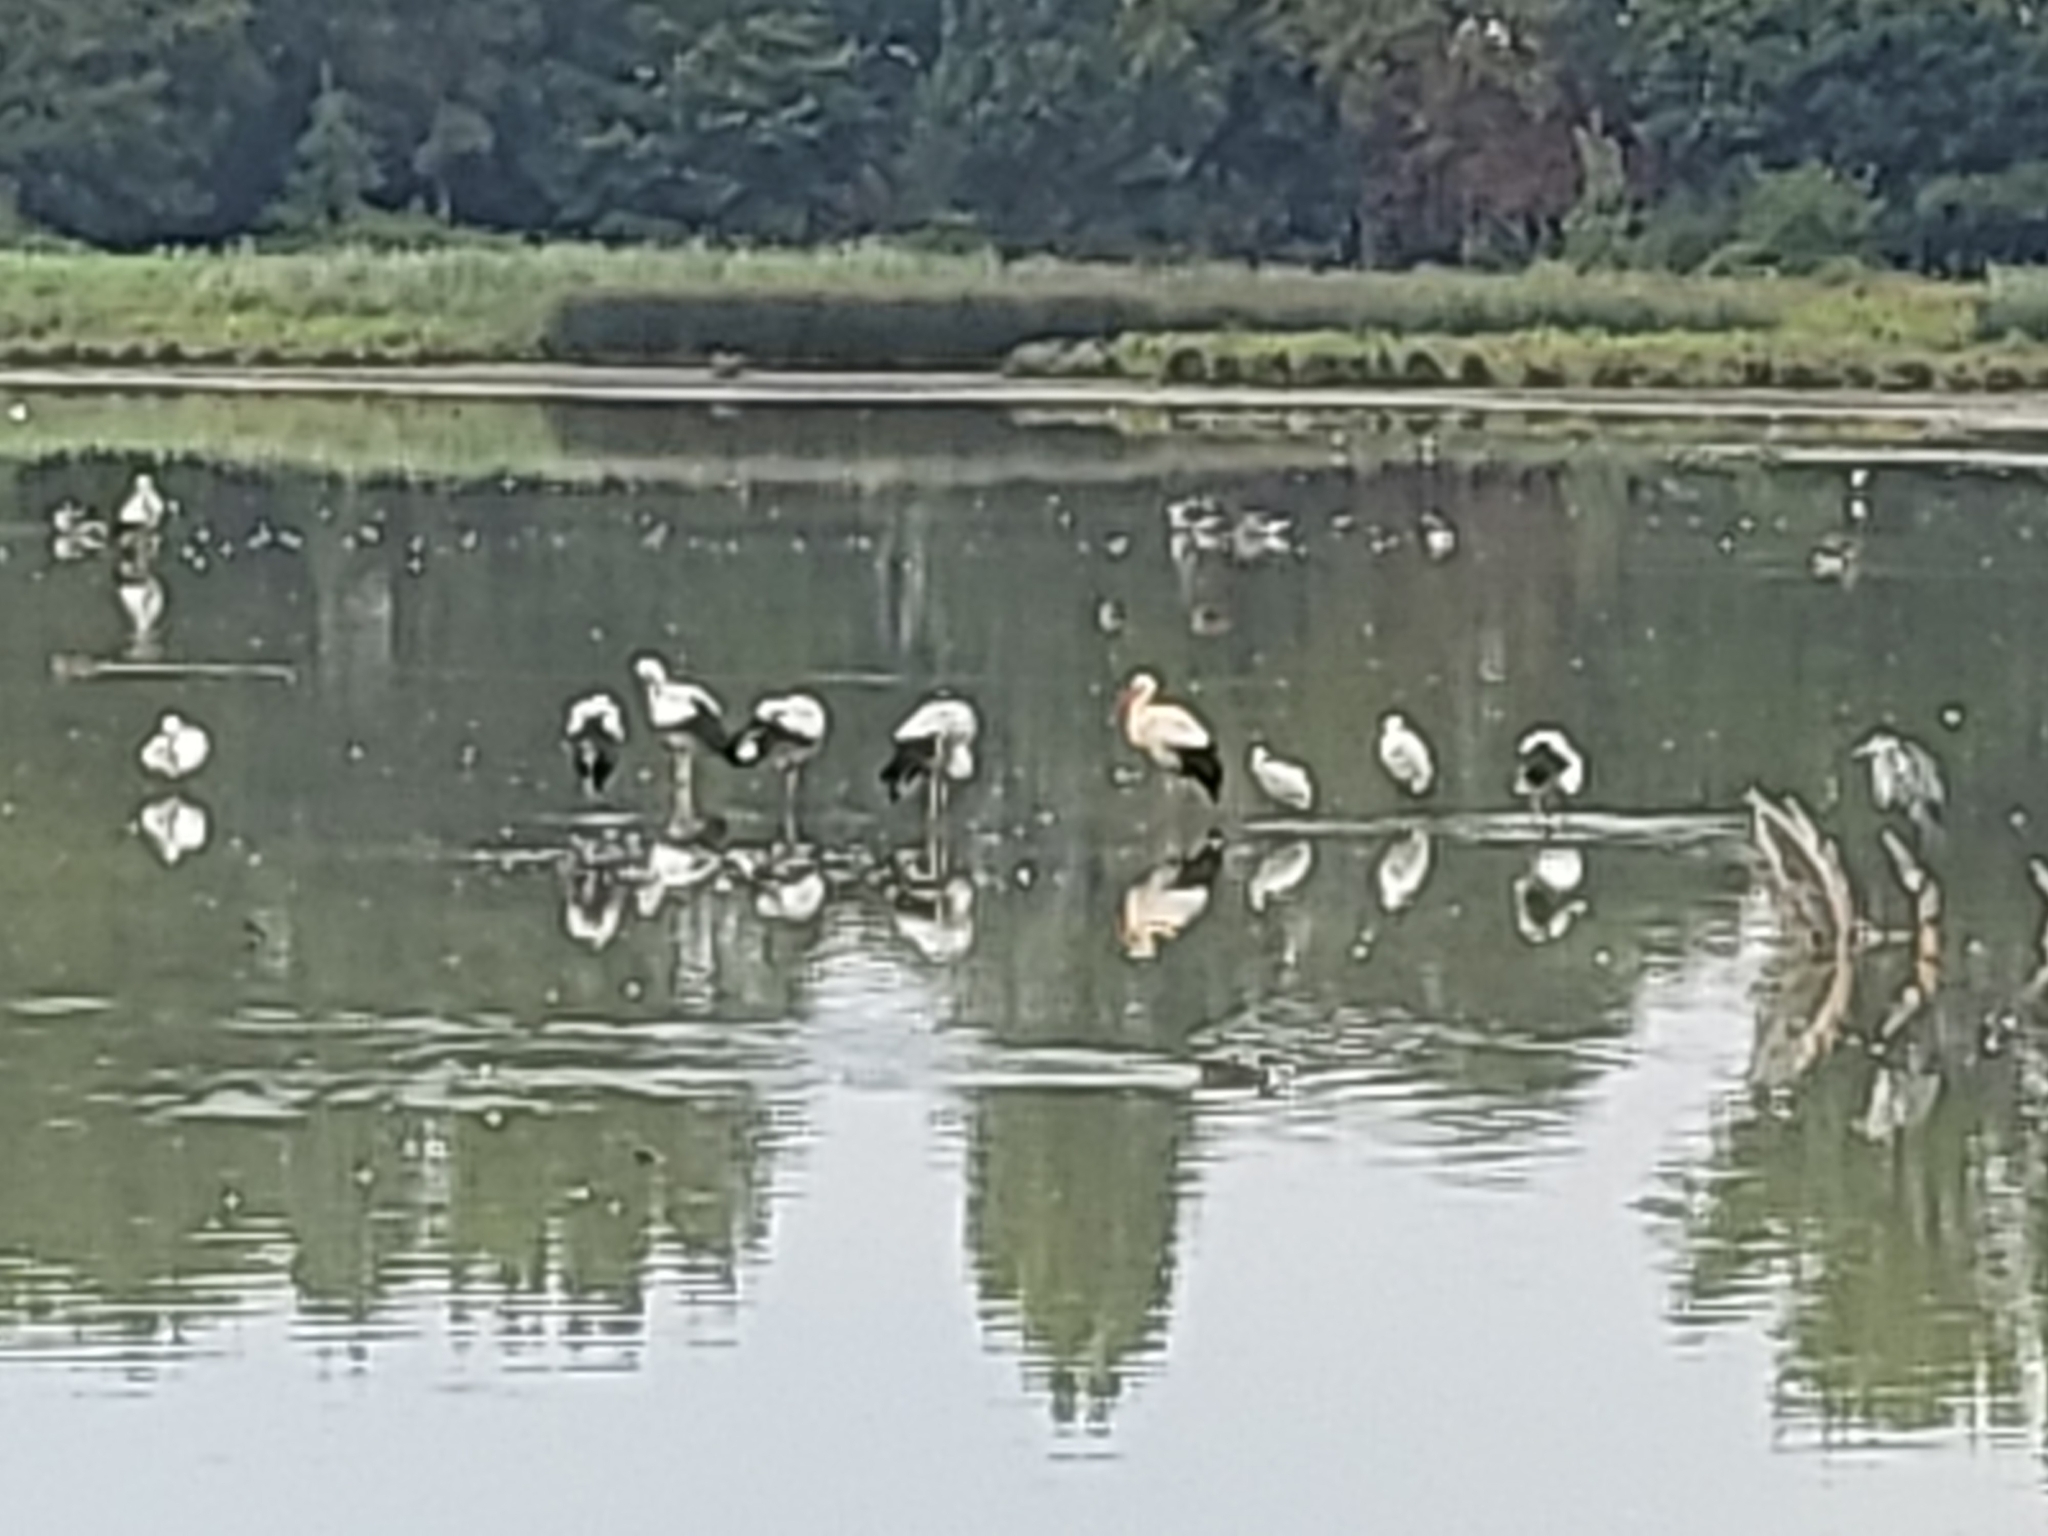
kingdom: Animalia
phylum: Chordata
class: Aves
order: Ciconiiformes
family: Ciconiidae
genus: Ciconia
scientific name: Ciconia ciconia
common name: White stork
